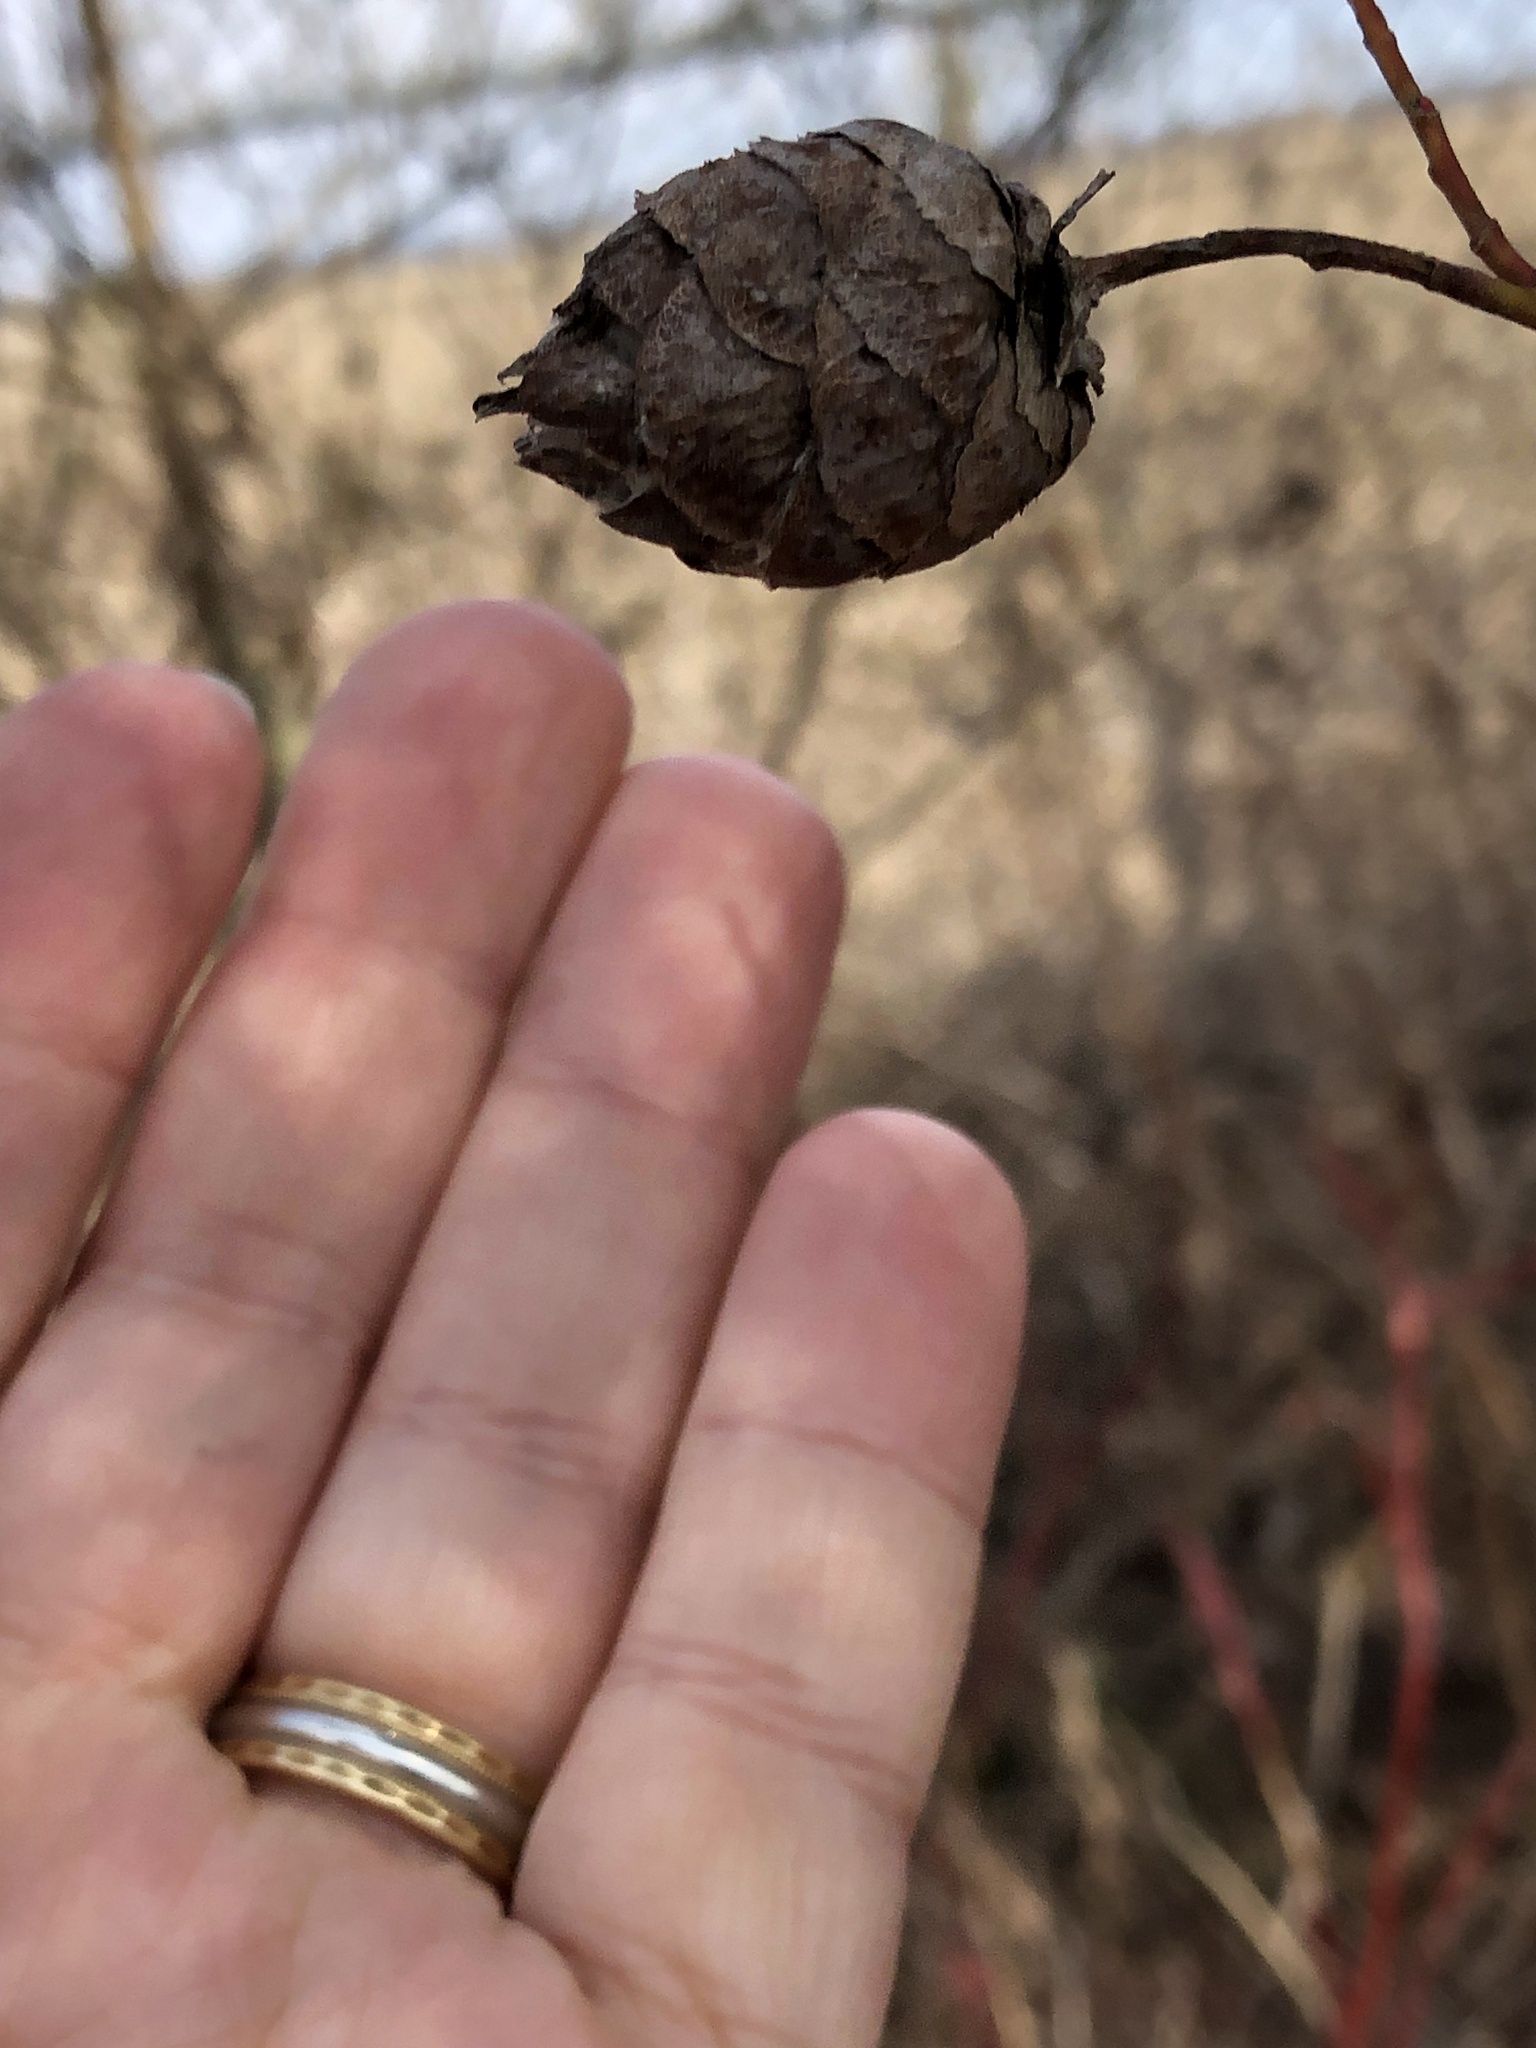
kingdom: Animalia
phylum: Arthropoda
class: Insecta
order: Diptera
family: Cecidomyiidae
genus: Rabdophaga
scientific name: Rabdophaga strobiloides
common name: Willow pinecone gall midge
